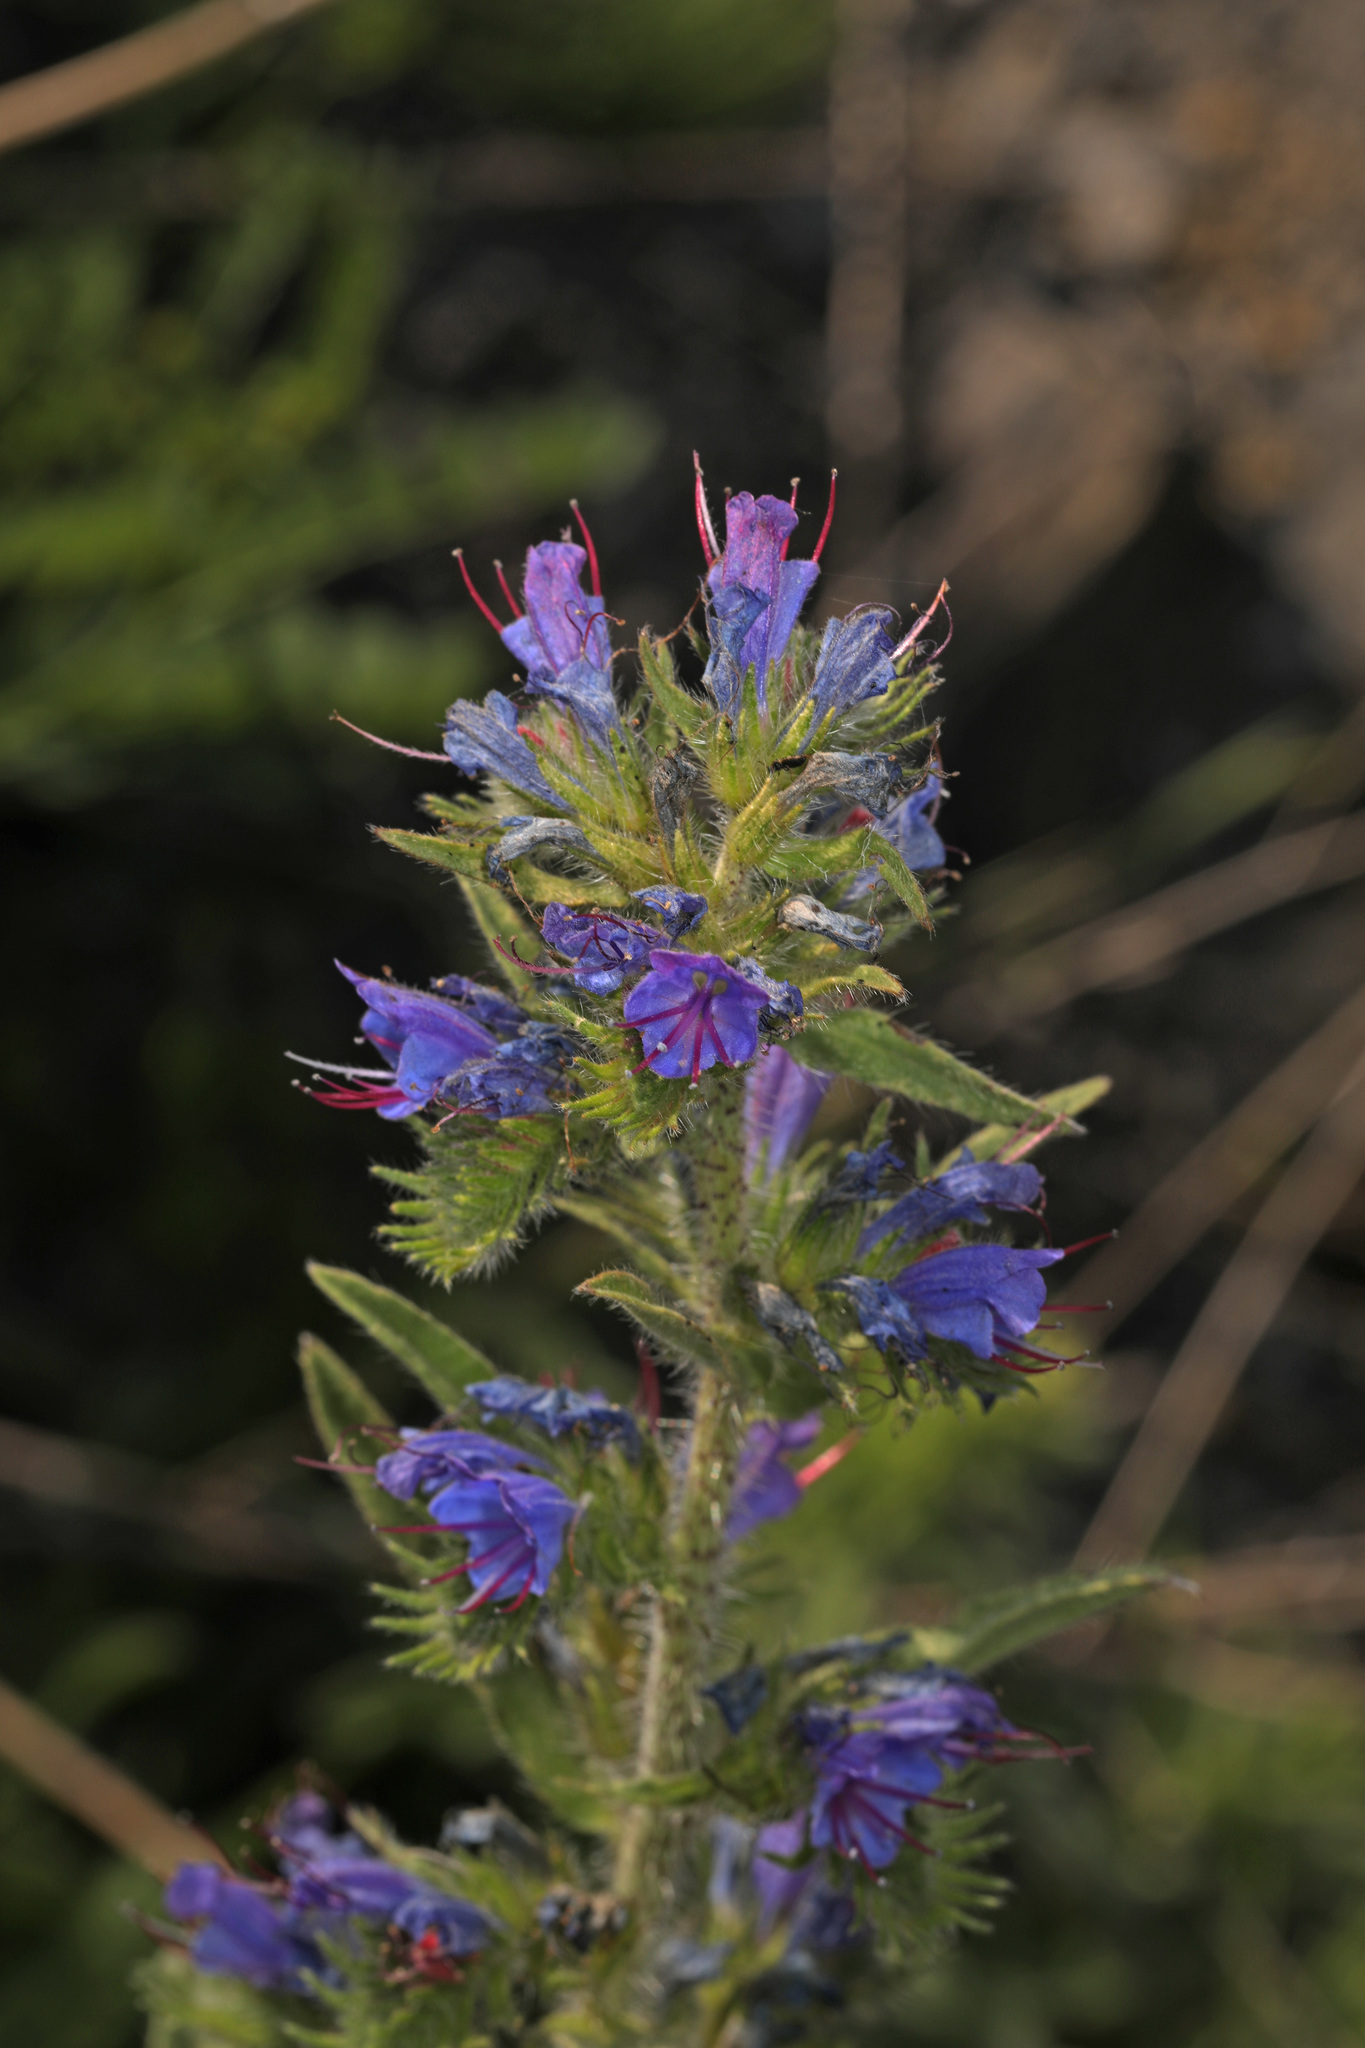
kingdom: Plantae
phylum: Tracheophyta
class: Magnoliopsida
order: Boraginales
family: Boraginaceae
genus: Echium
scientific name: Echium vulgare
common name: Common viper's bugloss
